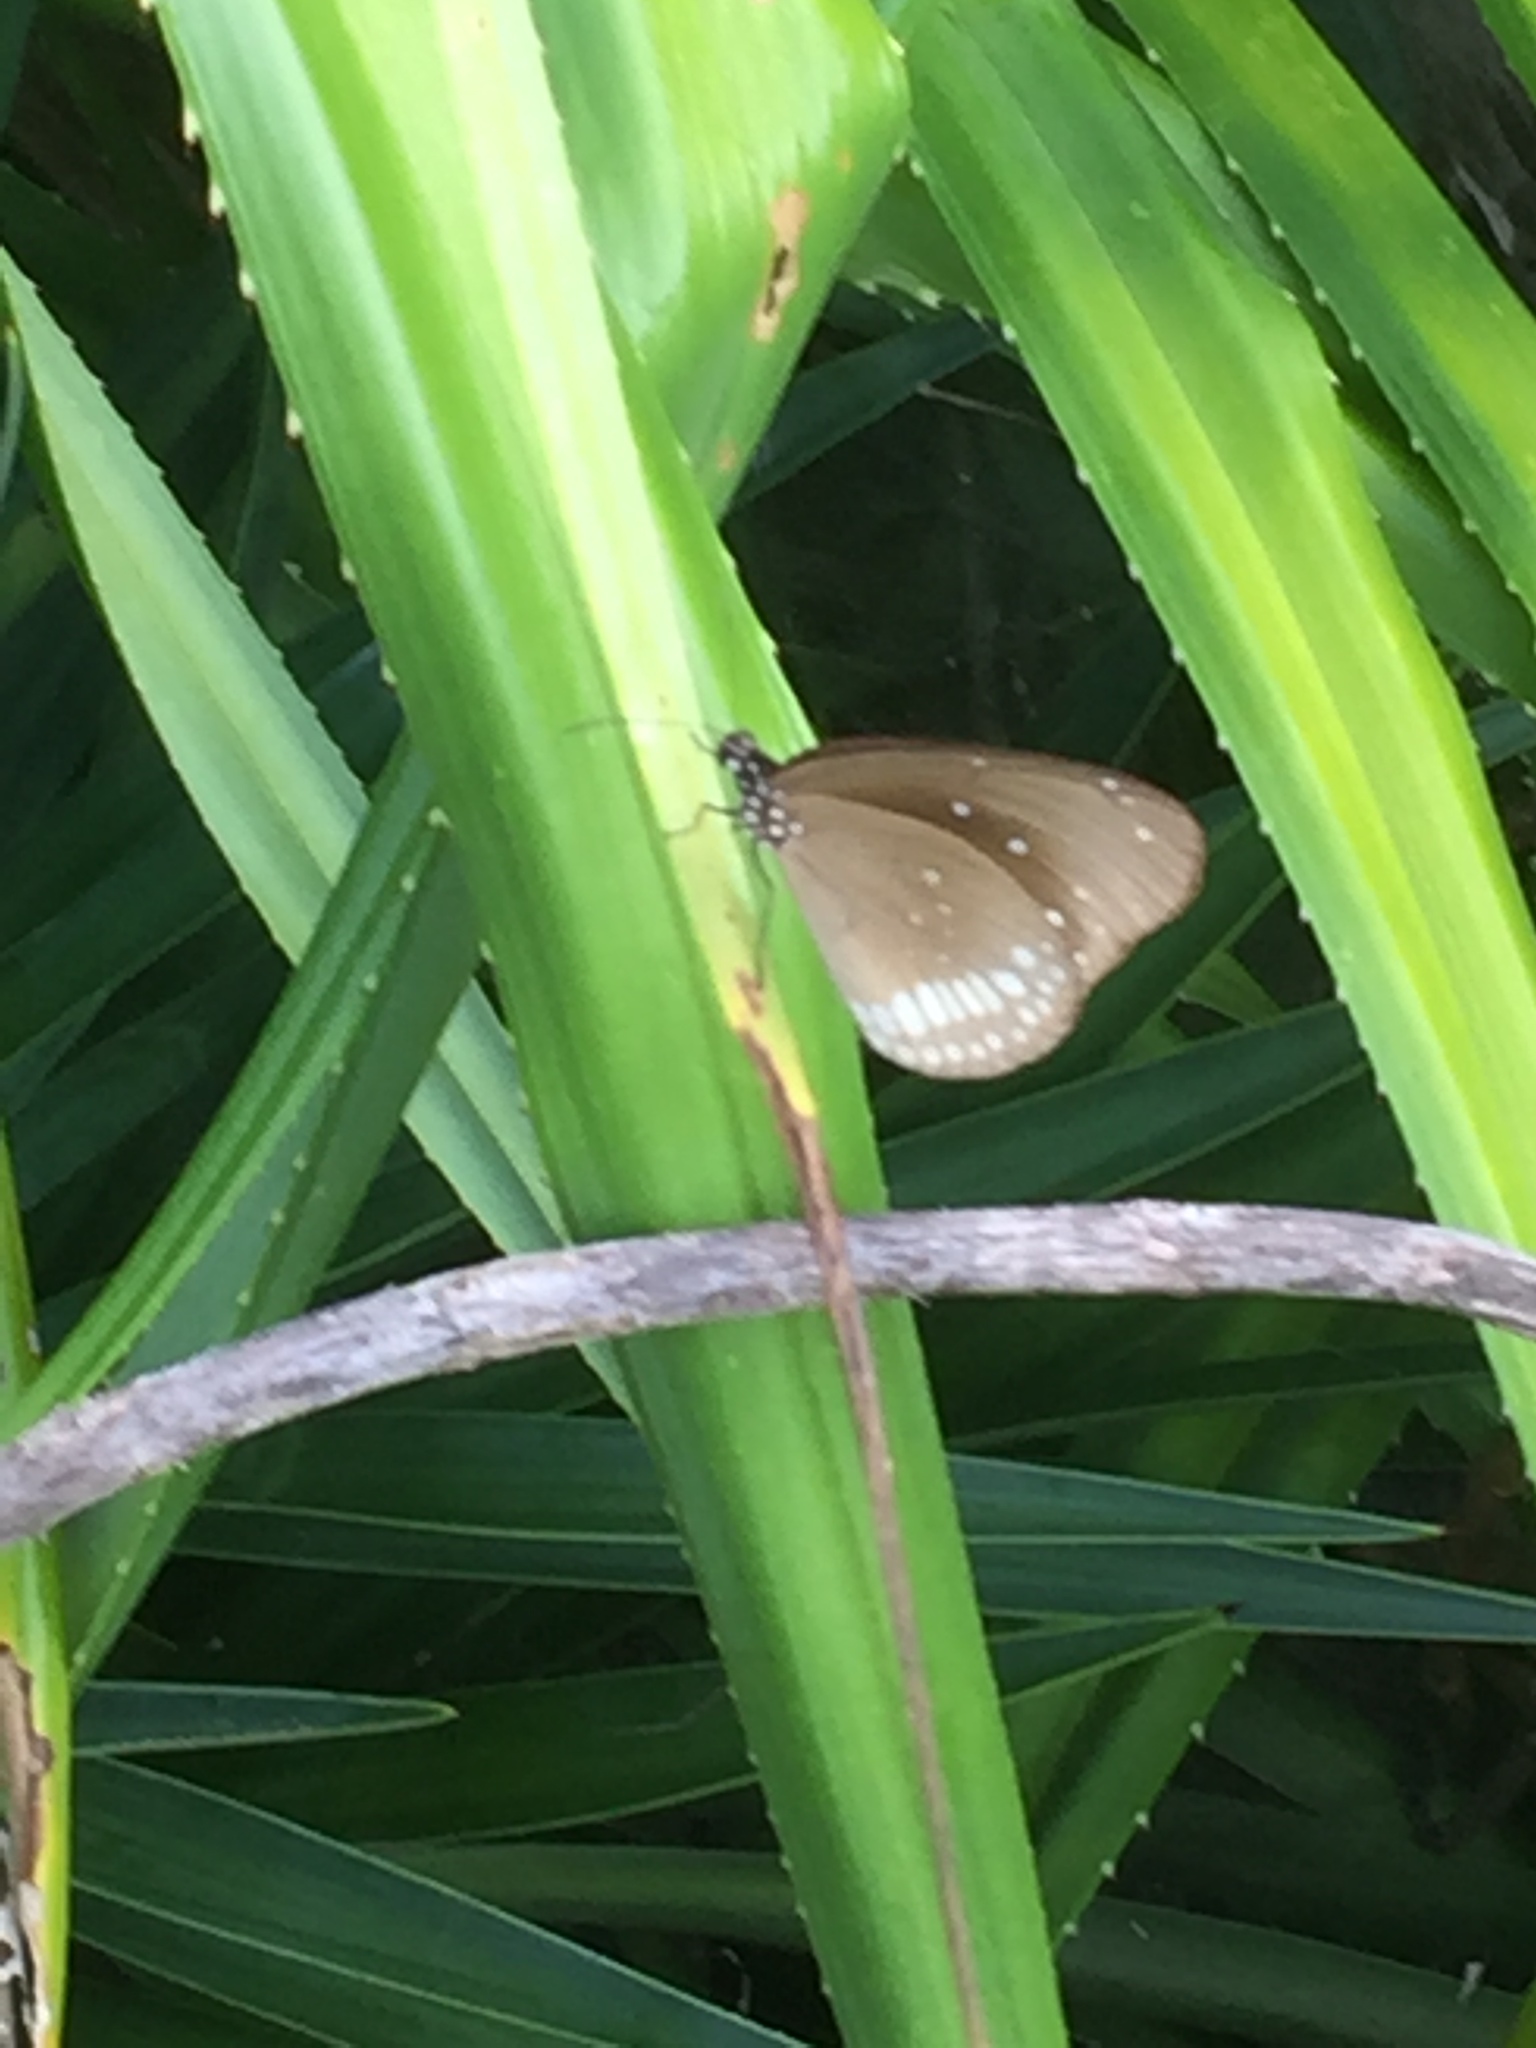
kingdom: Animalia
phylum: Arthropoda
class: Insecta
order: Lepidoptera
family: Nymphalidae
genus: Euploea
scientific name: Euploea core
